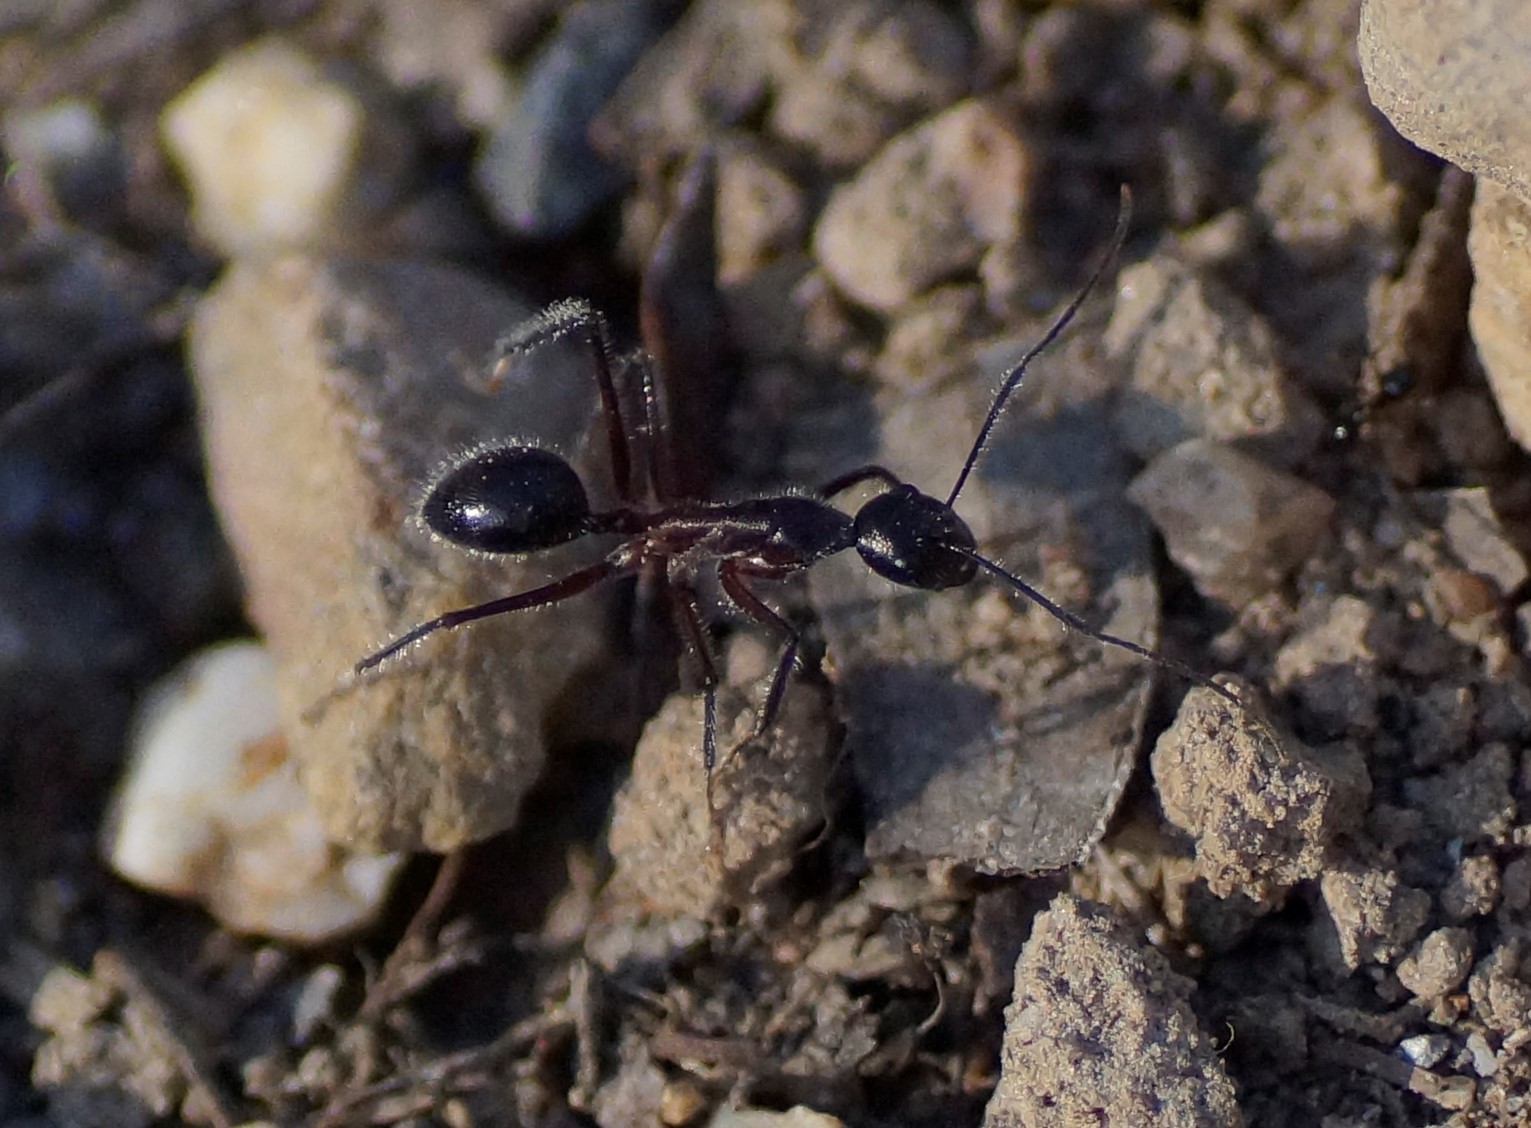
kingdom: Animalia
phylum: Arthropoda
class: Insecta
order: Hymenoptera
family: Formicidae
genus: Camponotus
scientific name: Camponotus intrepidus
